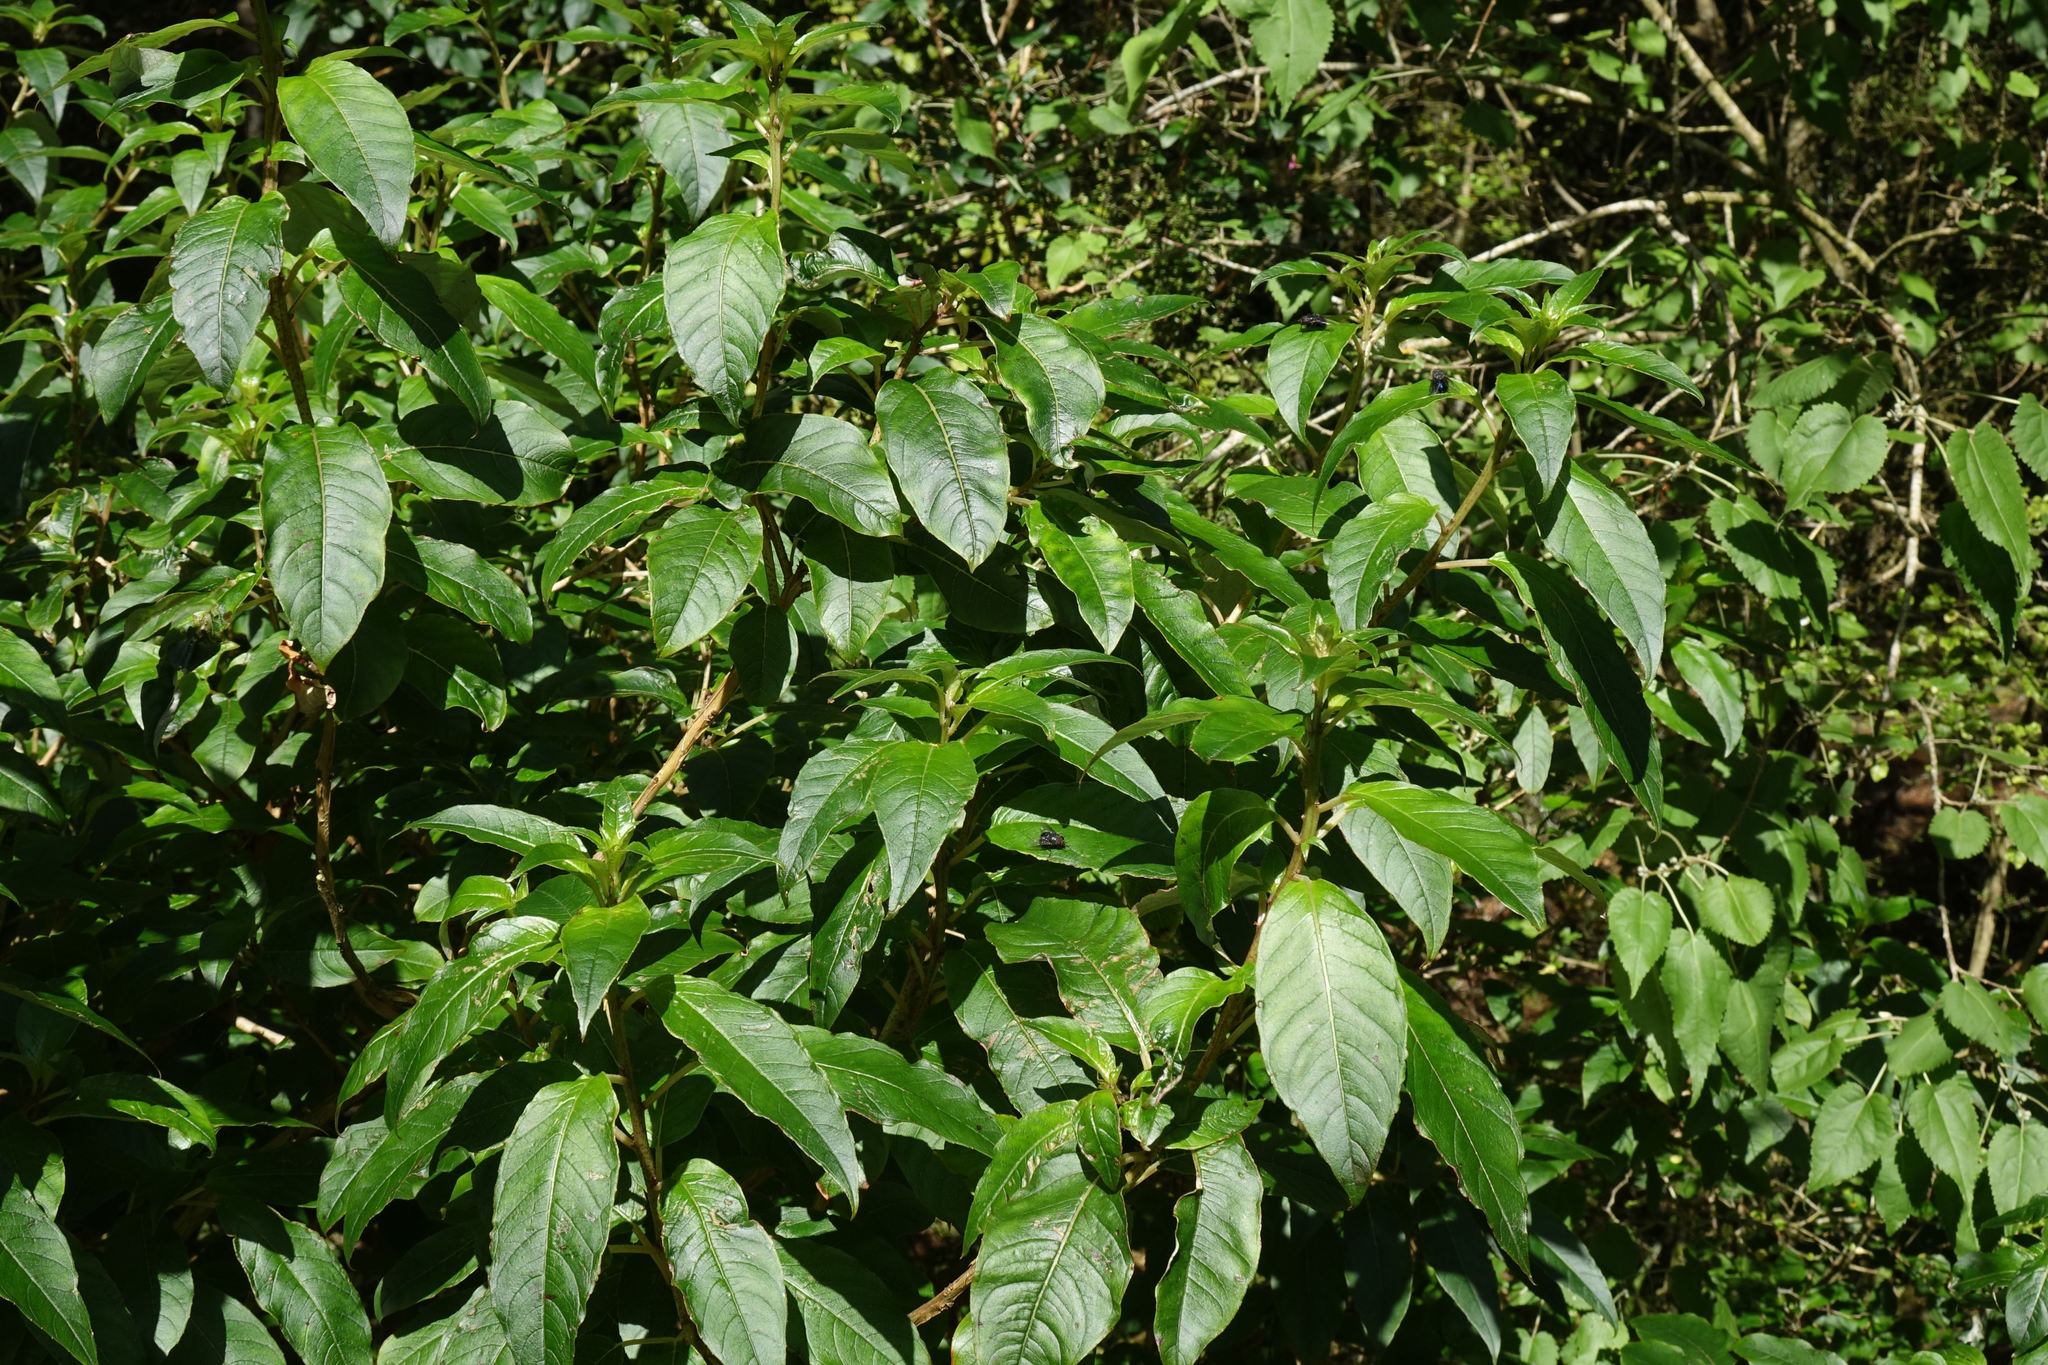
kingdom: Plantae
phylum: Tracheophyta
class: Magnoliopsida
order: Myrtales
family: Onagraceae
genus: Fuchsia
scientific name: Fuchsia excorticata
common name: Tree fuchsia
